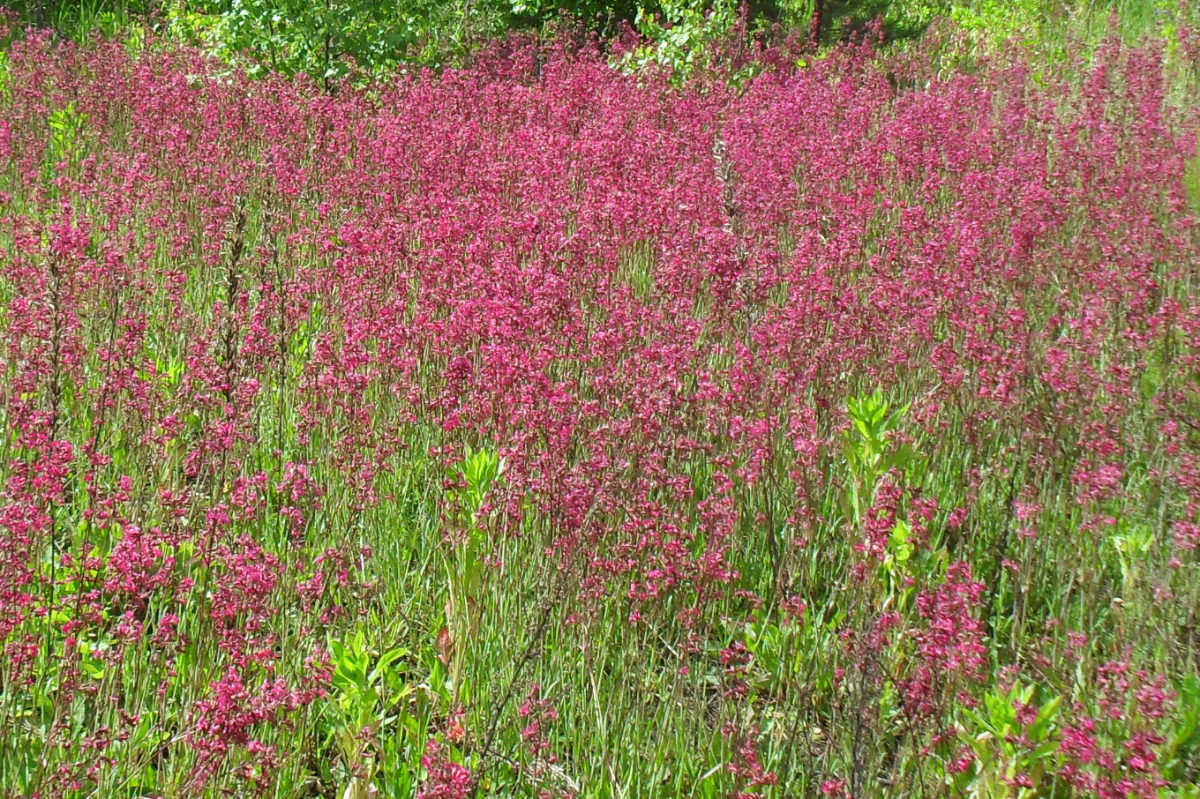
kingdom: Plantae
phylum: Tracheophyta
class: Magnoliopsida
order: Caryophyllales
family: Caryophyllaceae
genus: Viscaria
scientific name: Viscaria vulgaris
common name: Clammy campion
